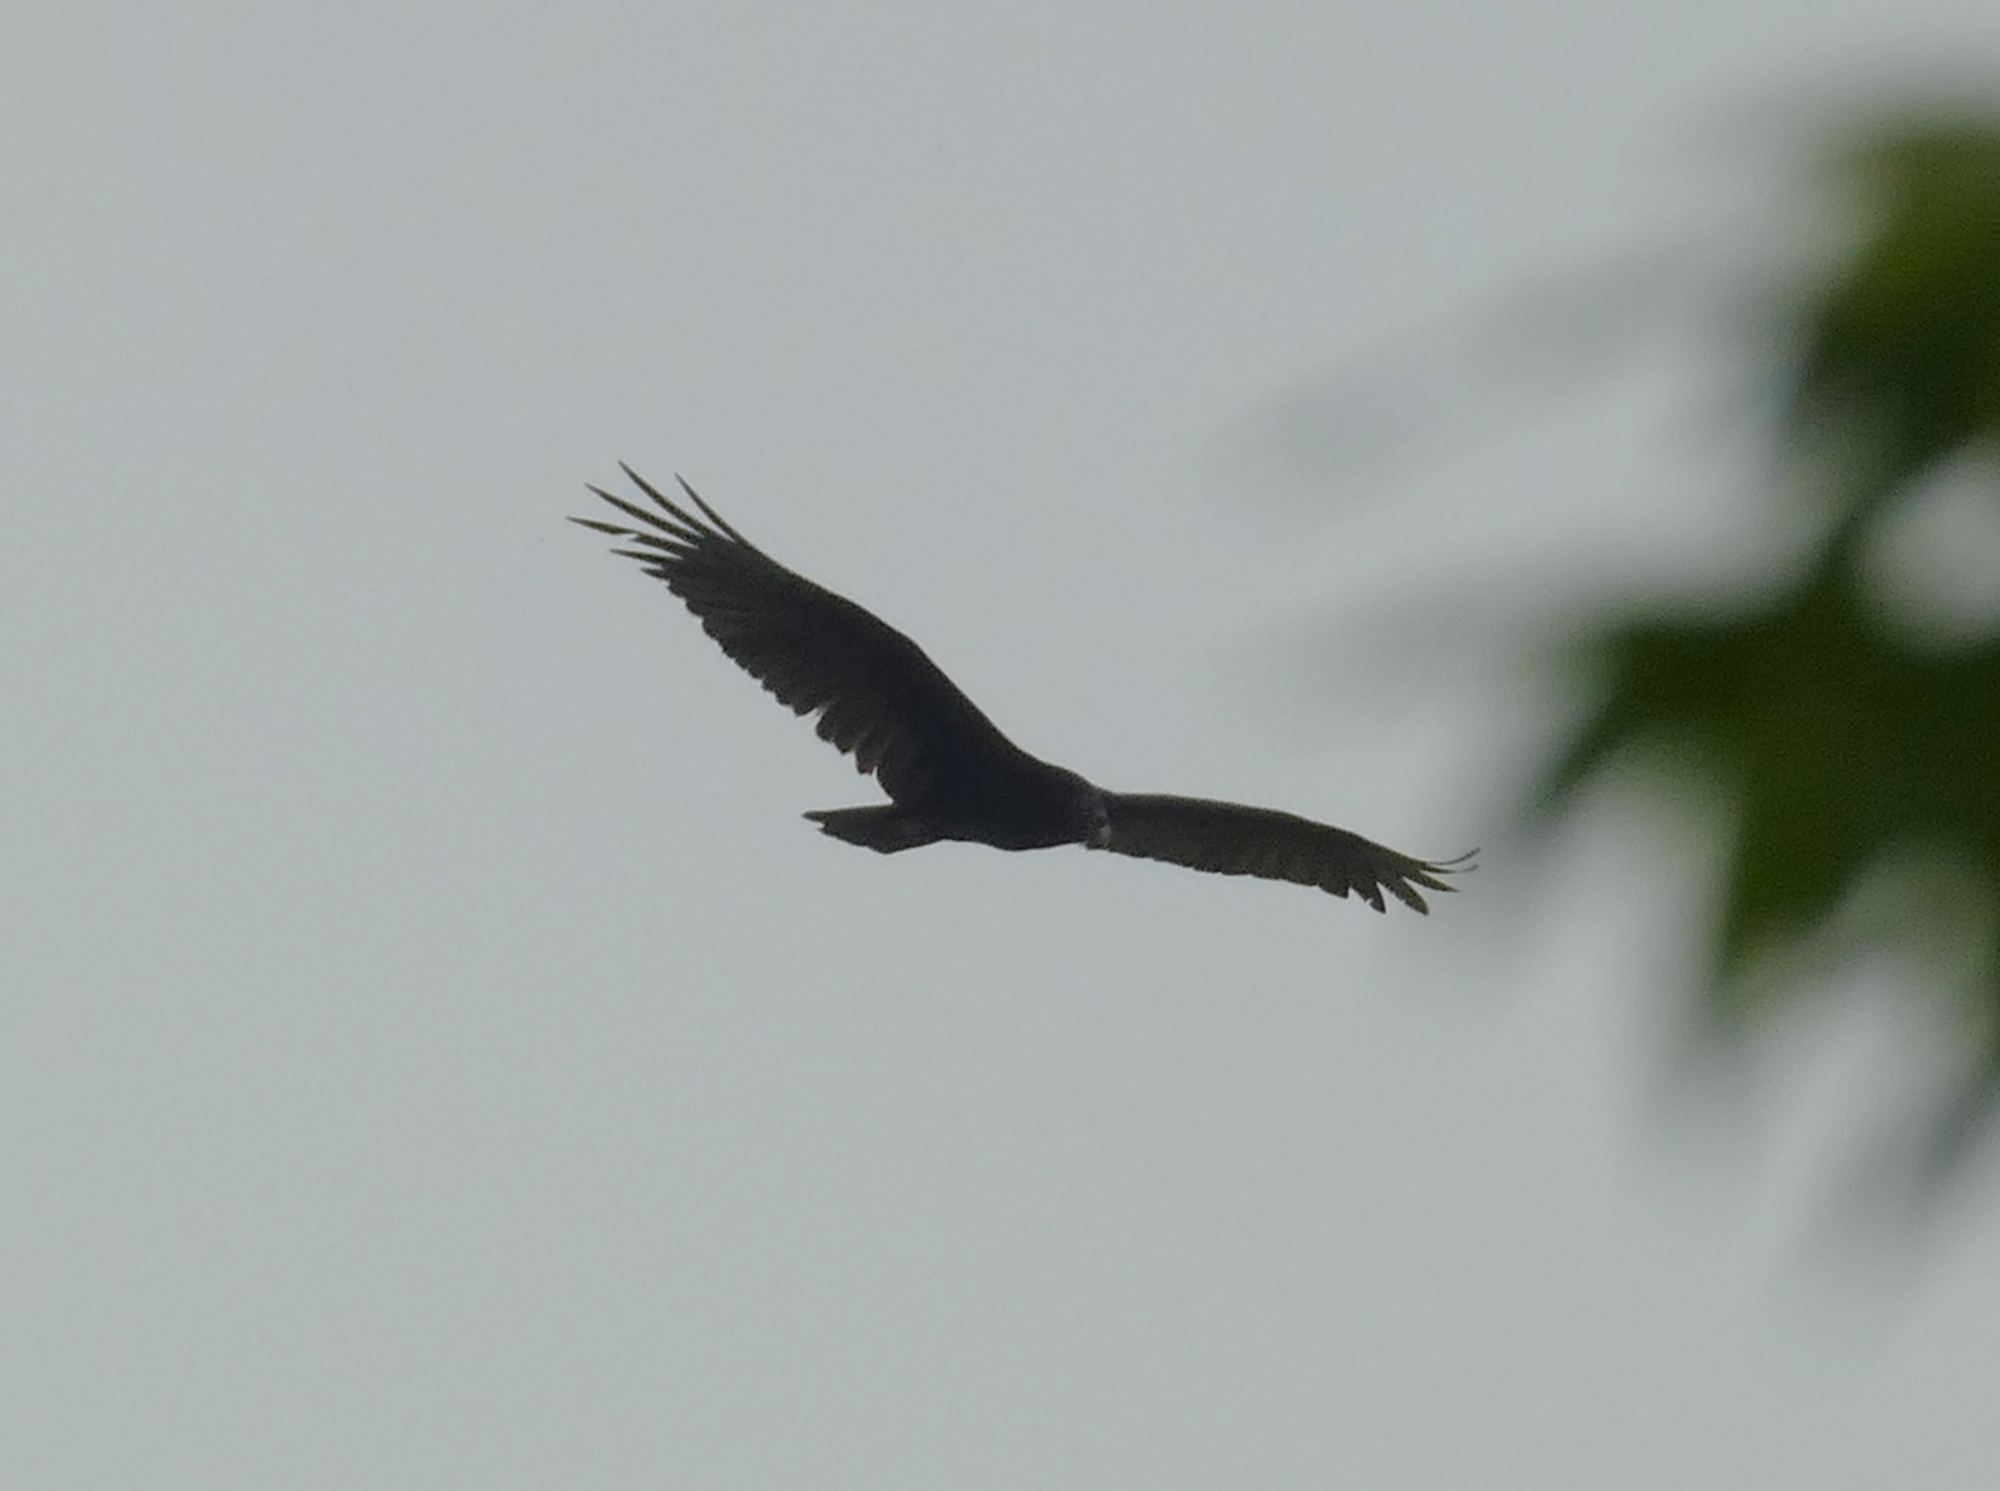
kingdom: Animalia
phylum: Chordata
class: Aves
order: Accipitriformes
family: Cathartidae
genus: Cathartes
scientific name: Cathartes aura
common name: Turkey vulture
